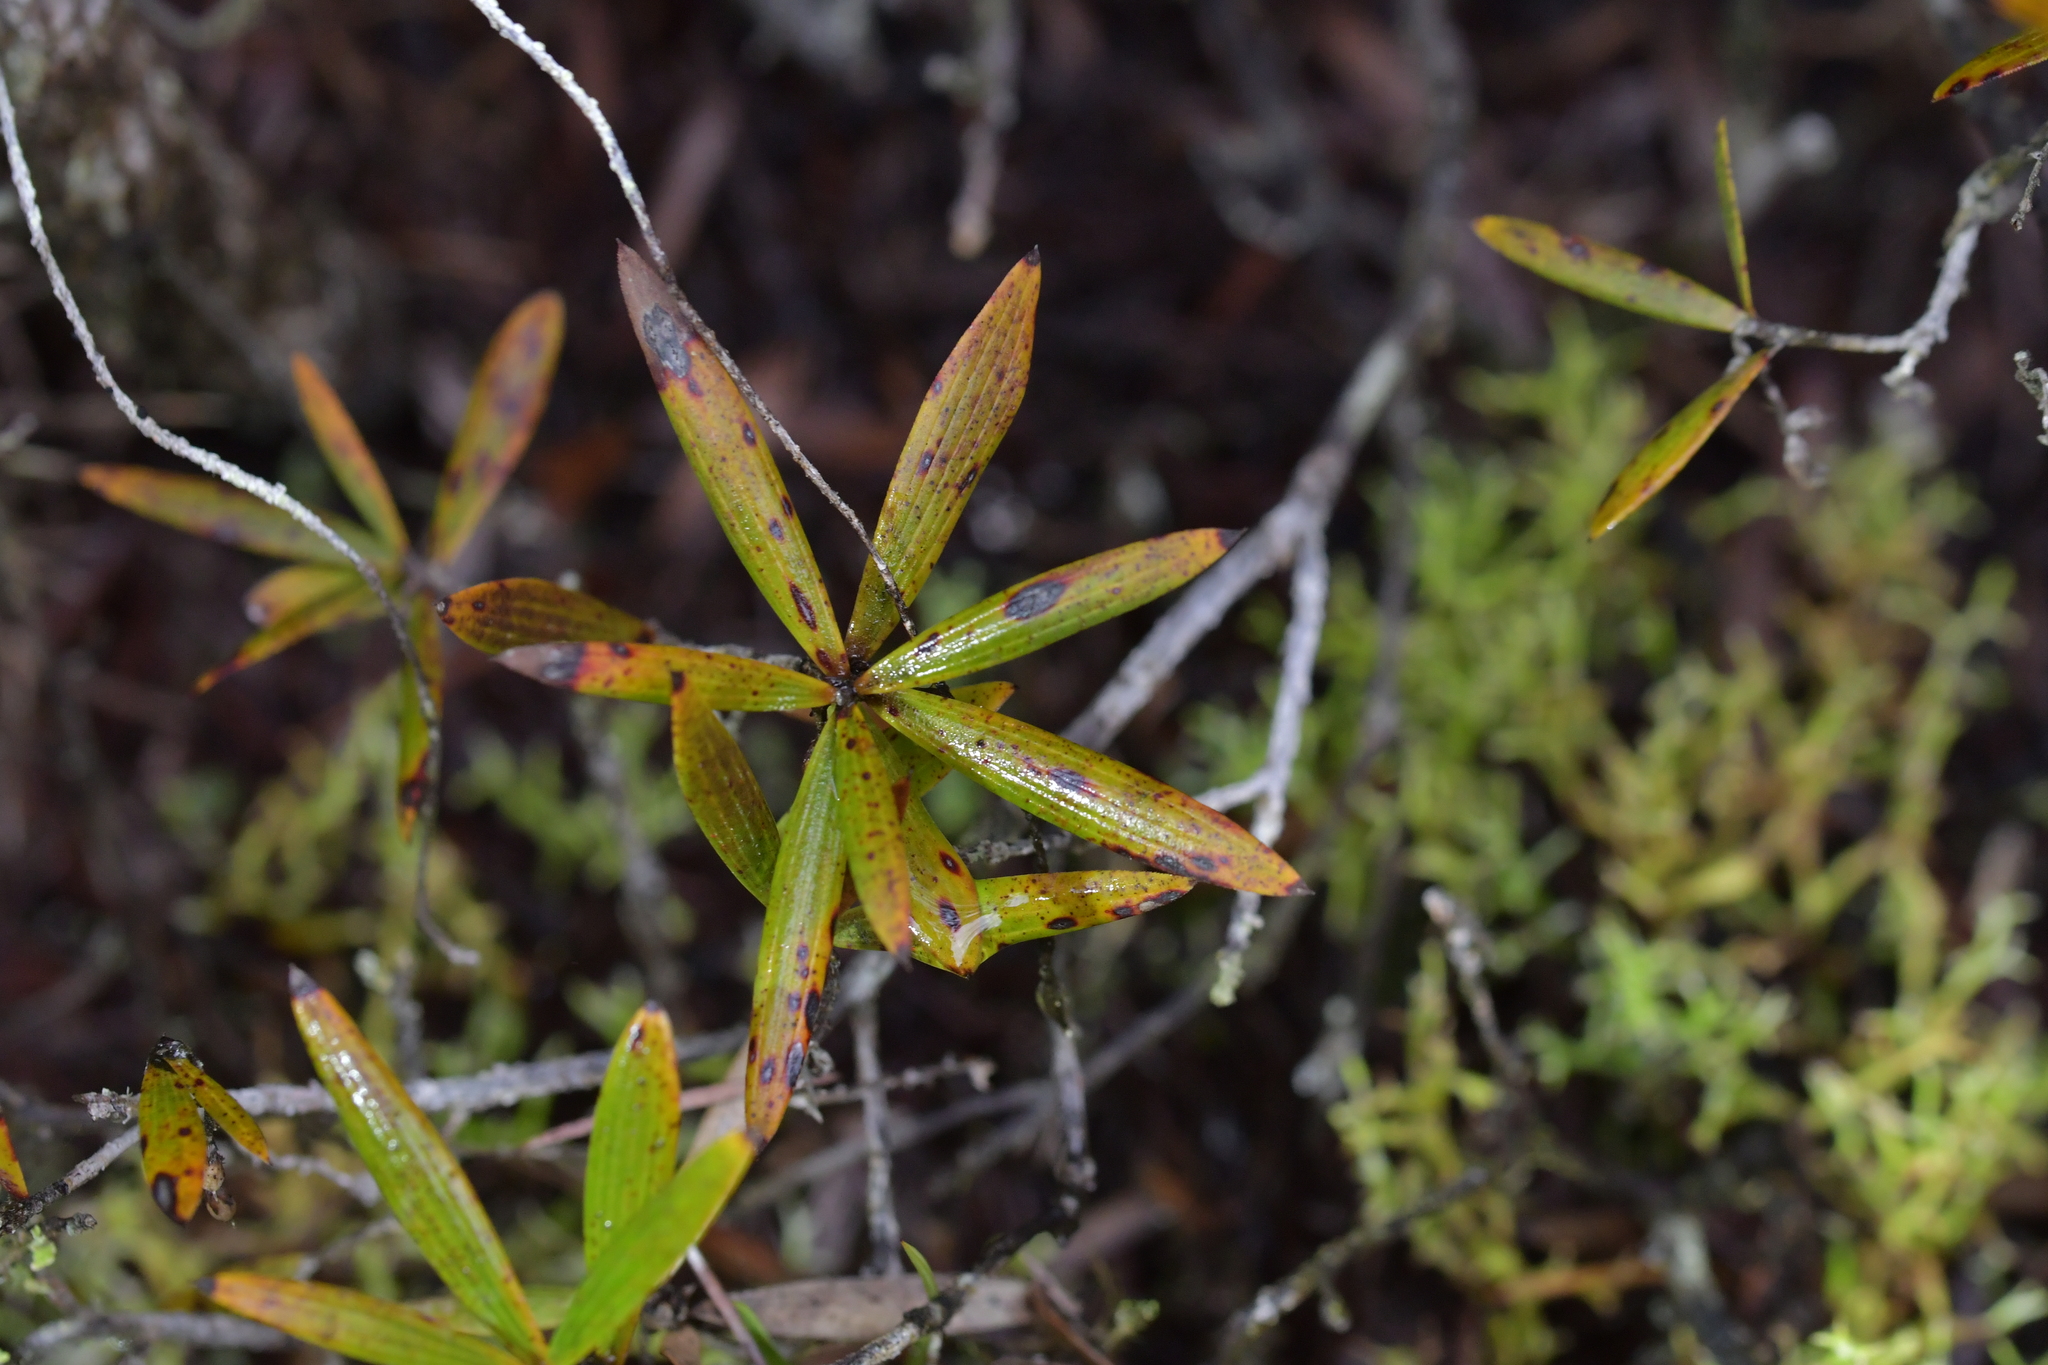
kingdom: Plantae
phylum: Tracheophyta
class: Magnoliopsida
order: Ericales
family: Ericaceae
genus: Leucopogon
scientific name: Leucopogon fasciculatus
